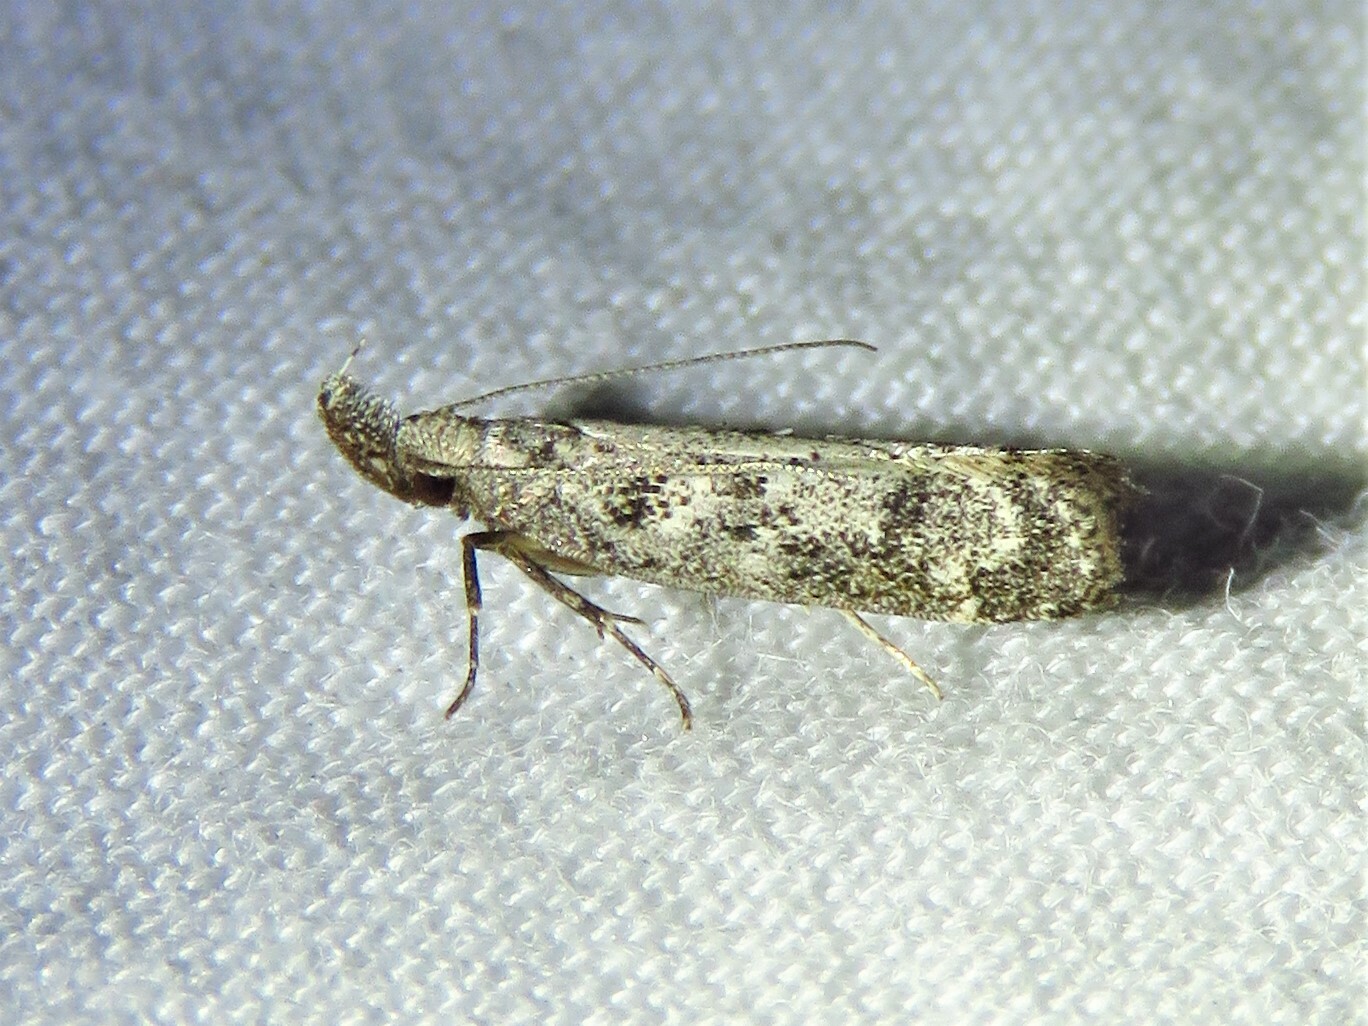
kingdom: Animalia
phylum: Arthropoda
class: Insecta
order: Lepidoptera
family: Gelechiidae
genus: Dichomeris
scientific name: Dichomeris inversella
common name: Inverse dichomeris moth
